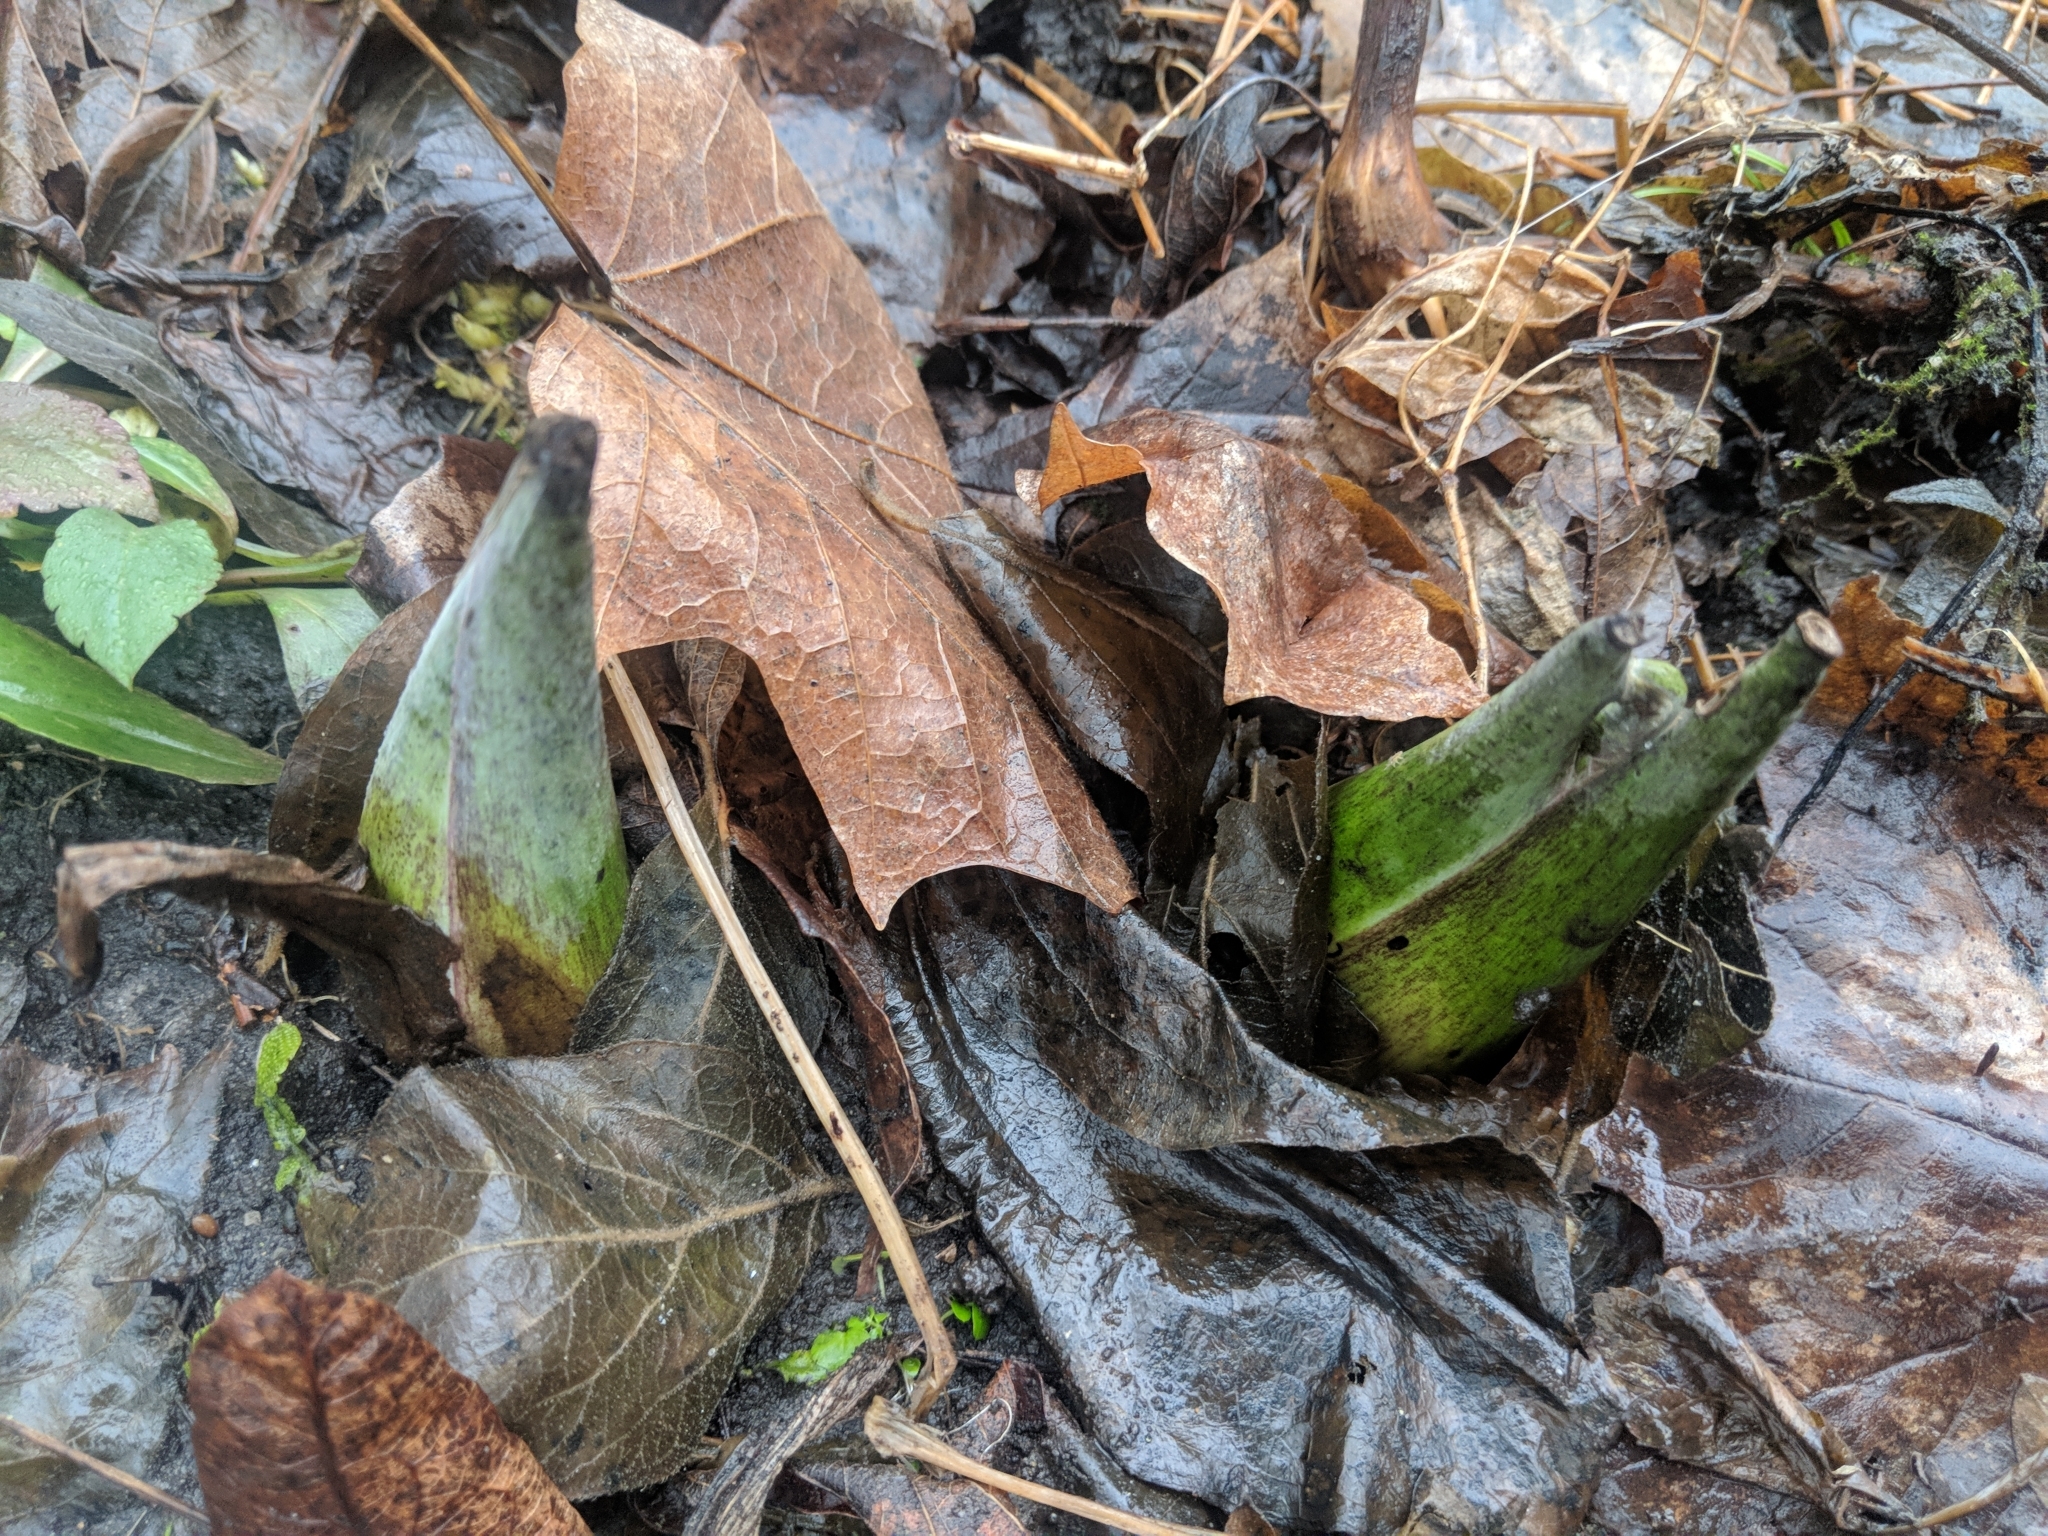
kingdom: Plantae
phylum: Tracheophyta
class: Liliopsida
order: Alismatales
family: Araceae
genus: Symplocarpus
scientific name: Symplocarpus foetidus
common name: Eastern skunk cabbage
